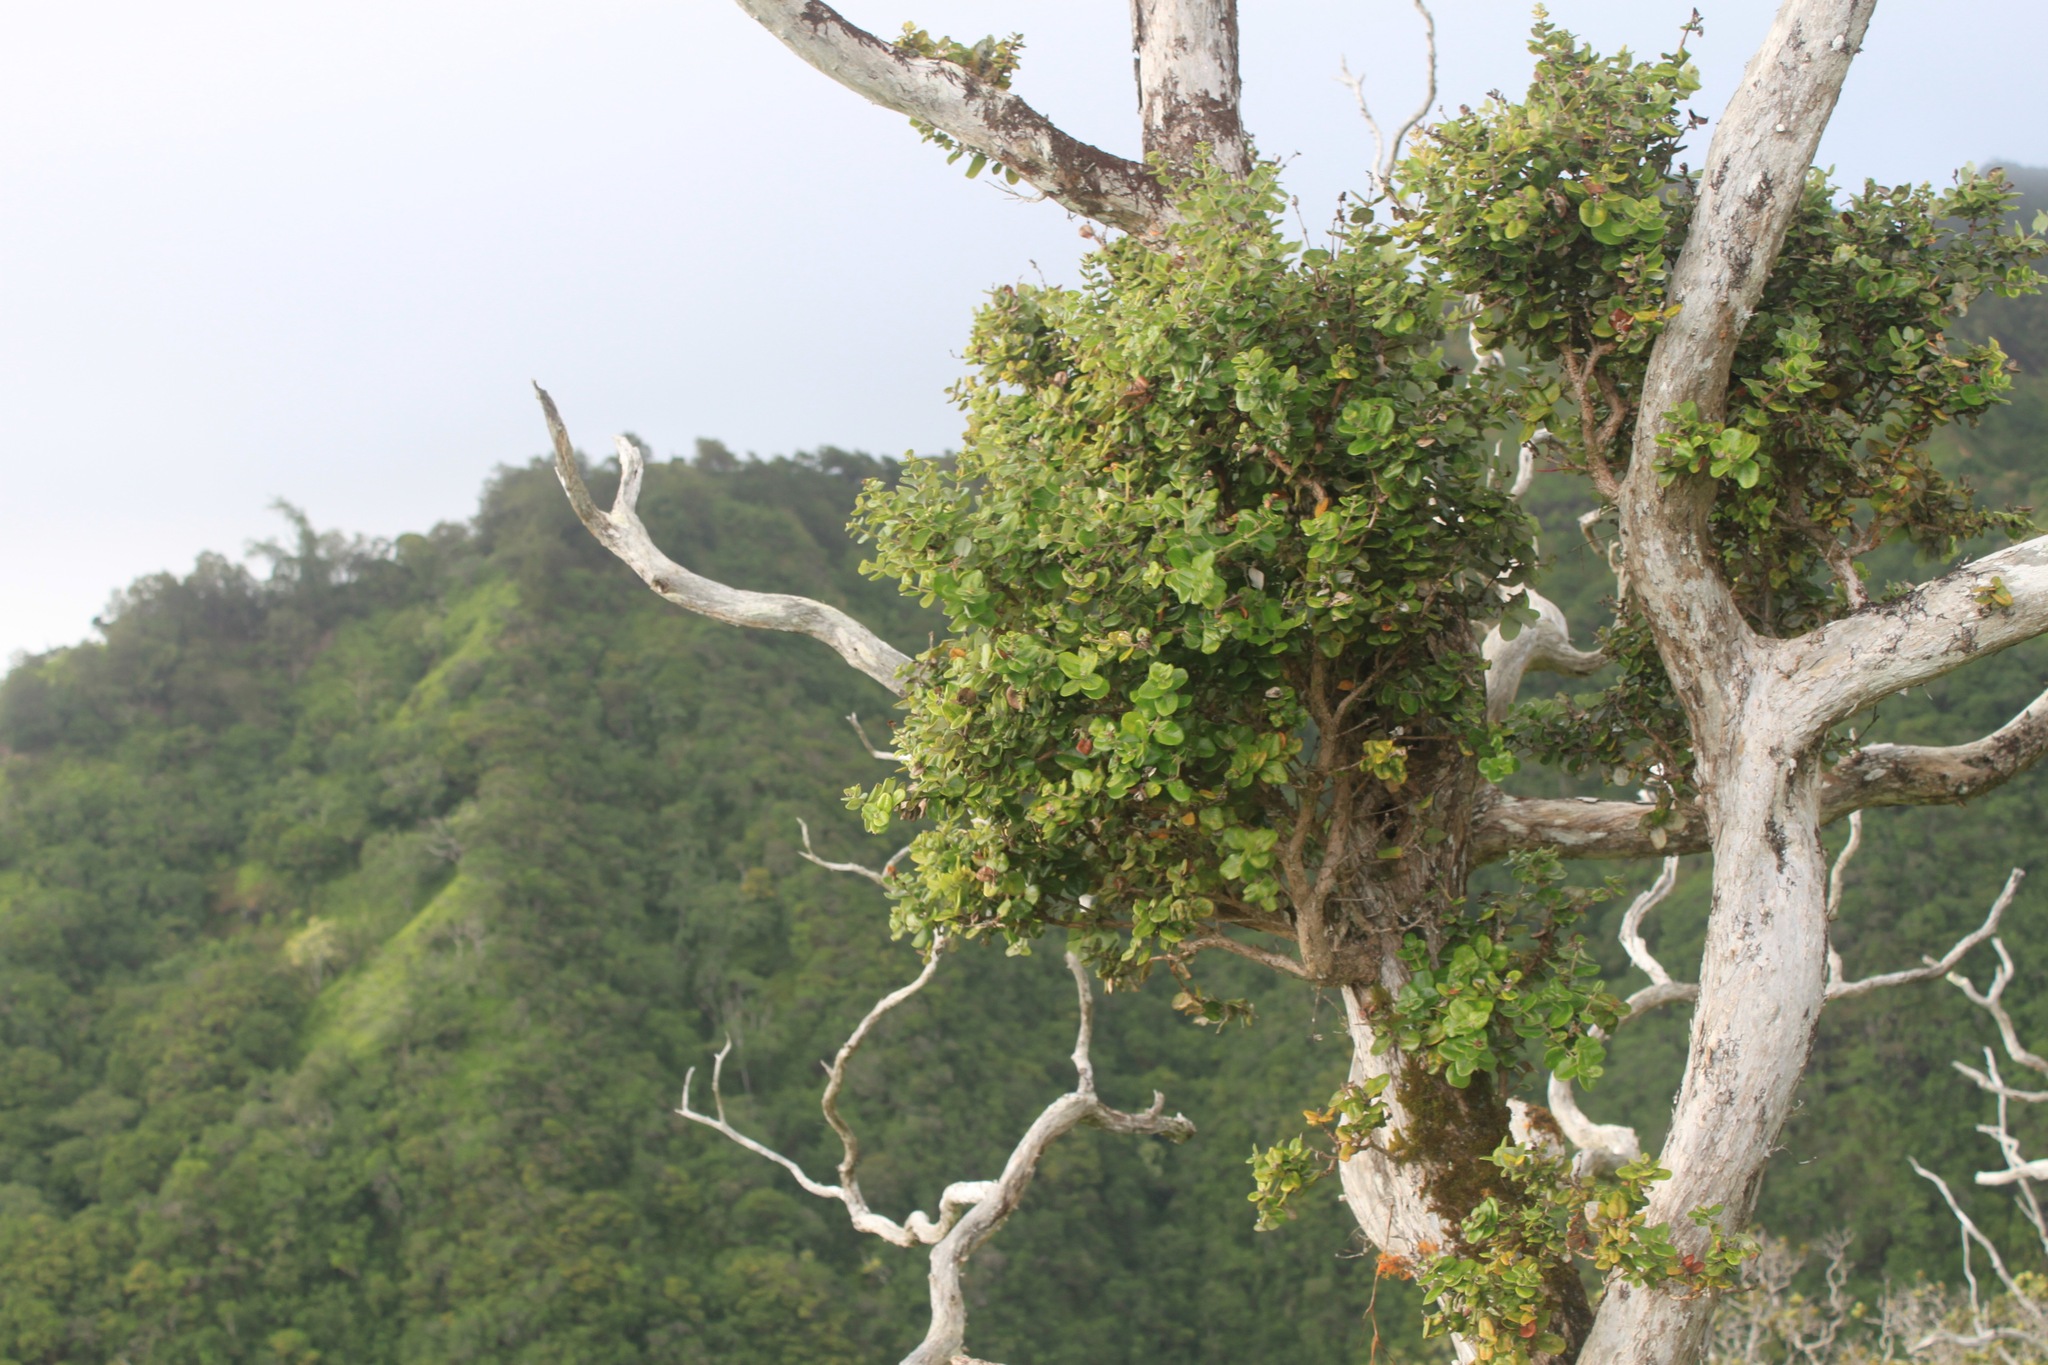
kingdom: Plantae
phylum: Tracheophyta
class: Magnoliopsida
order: Myrtales
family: Myrtaceae
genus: Metrosideros
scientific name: Metrosideros polymorpha
